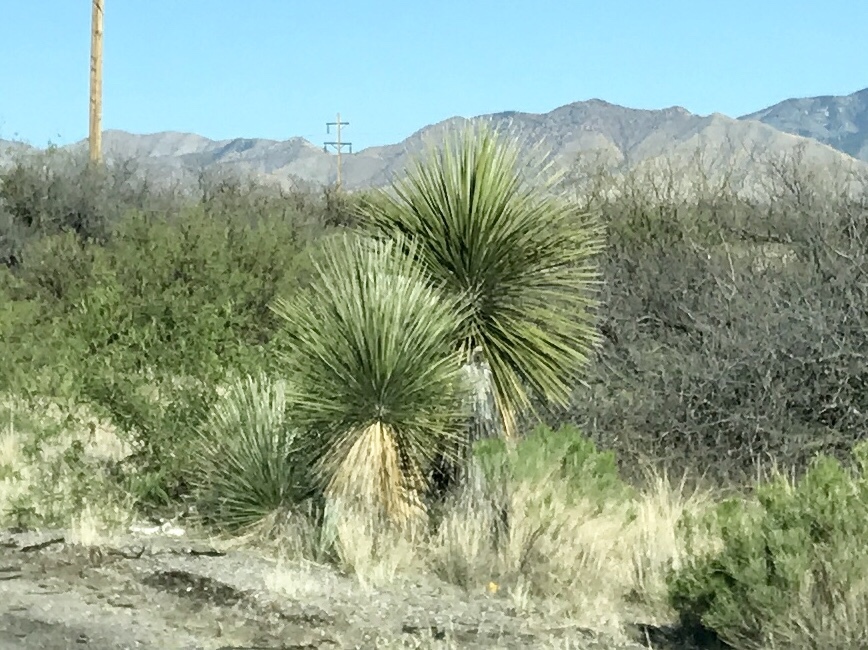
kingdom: Plantae
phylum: Tracheophyta
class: Liliopsida
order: Asparagales
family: Asparagaceae
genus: Yucca
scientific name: Yucca elata
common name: Palmella
